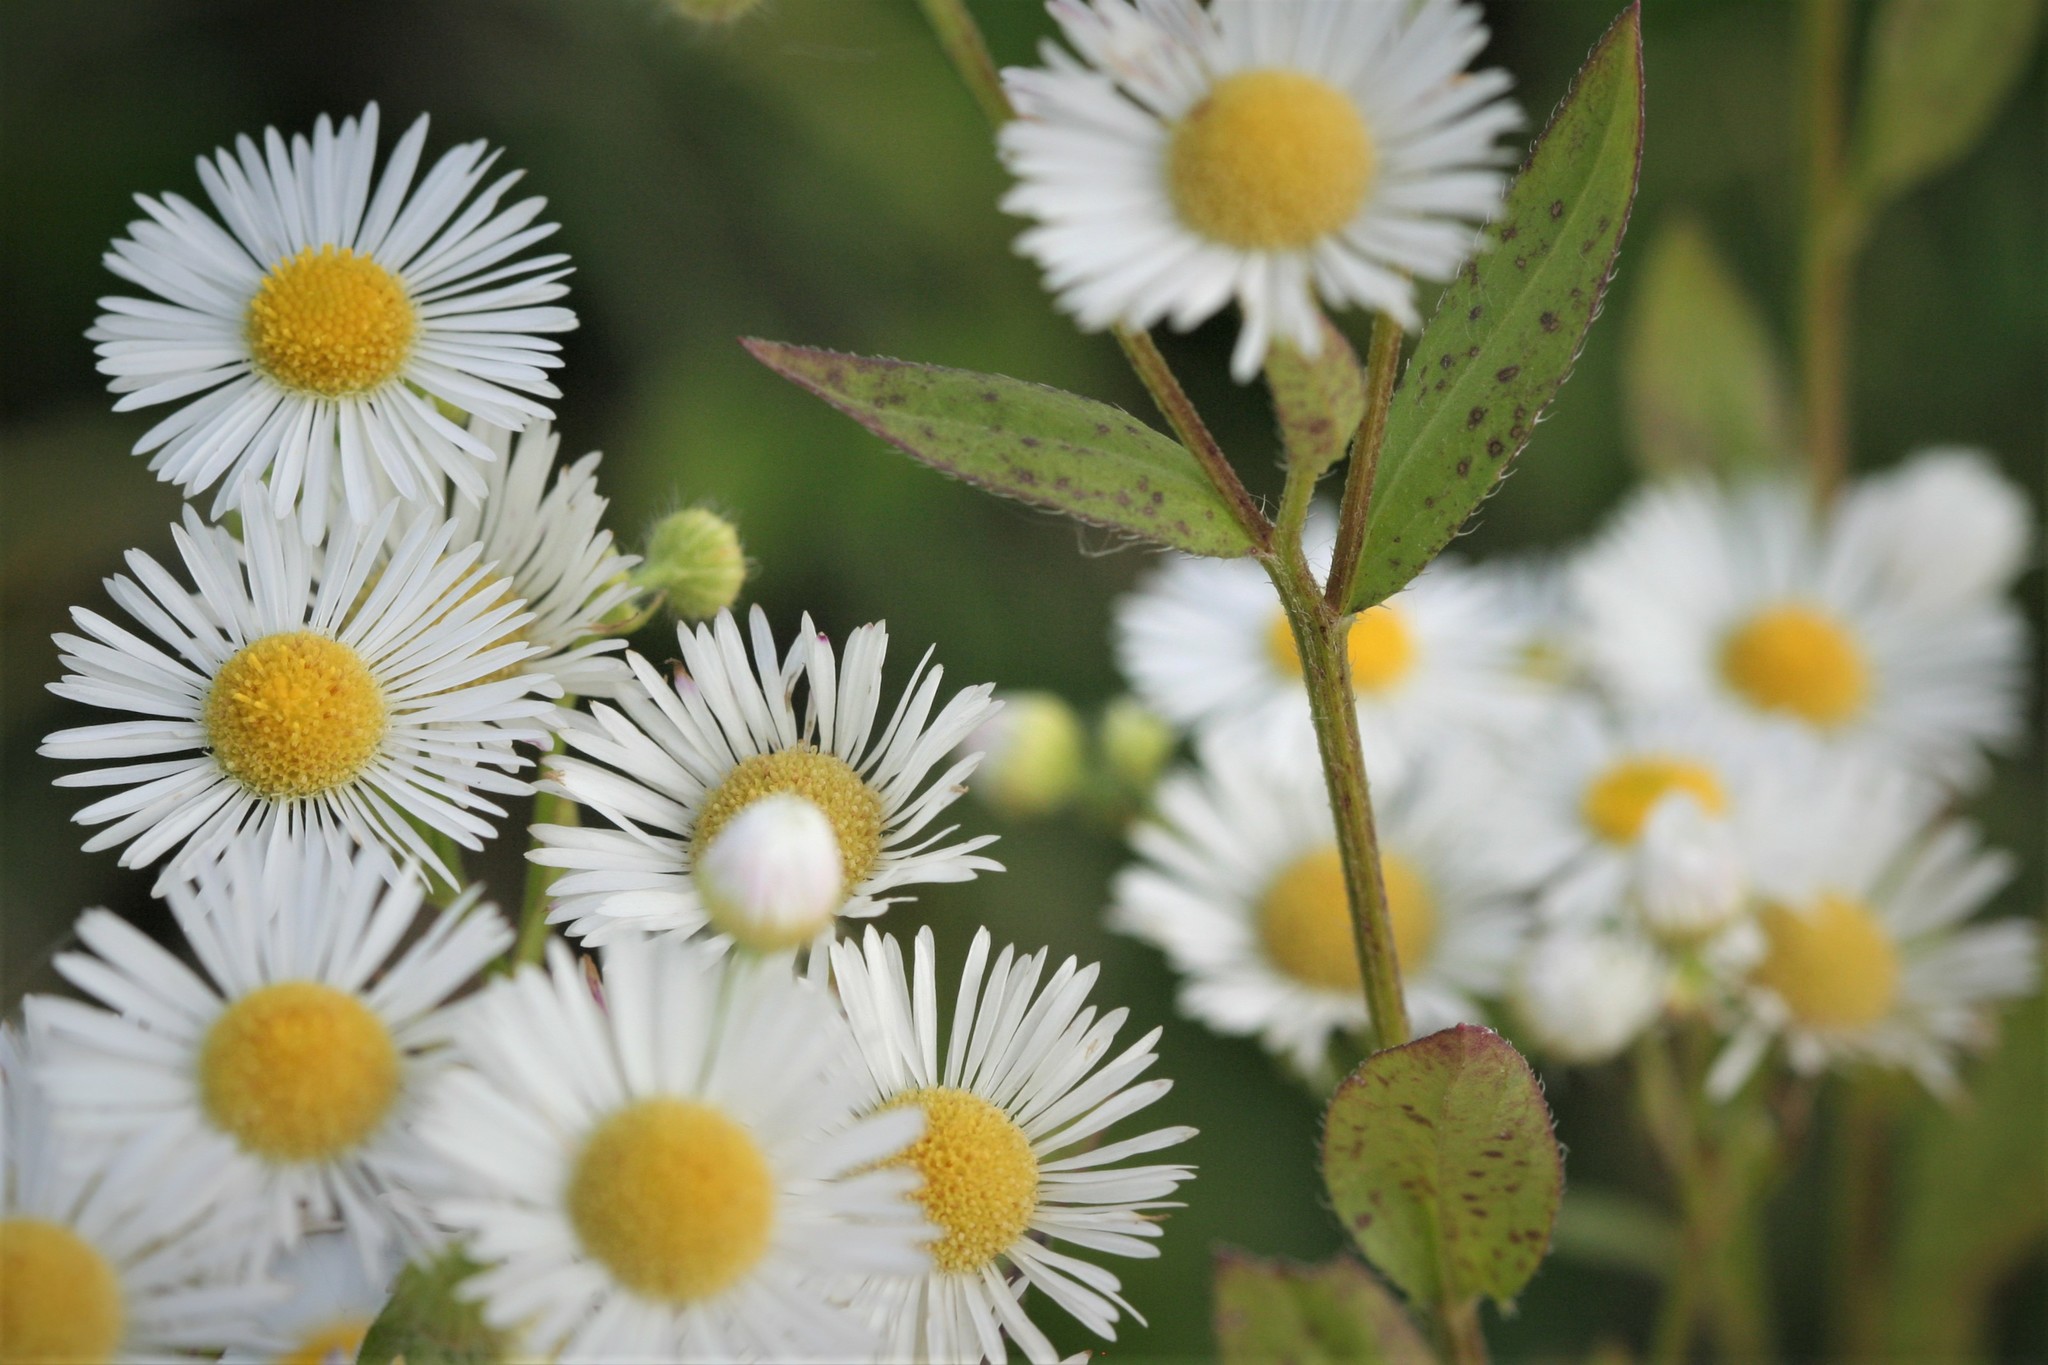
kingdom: Plantae
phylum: Tracheophyta
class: Magnoliopsida
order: Asterales
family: Asteraceae
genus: Erigeron
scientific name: Erigeron annuus
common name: Tall fleabane
